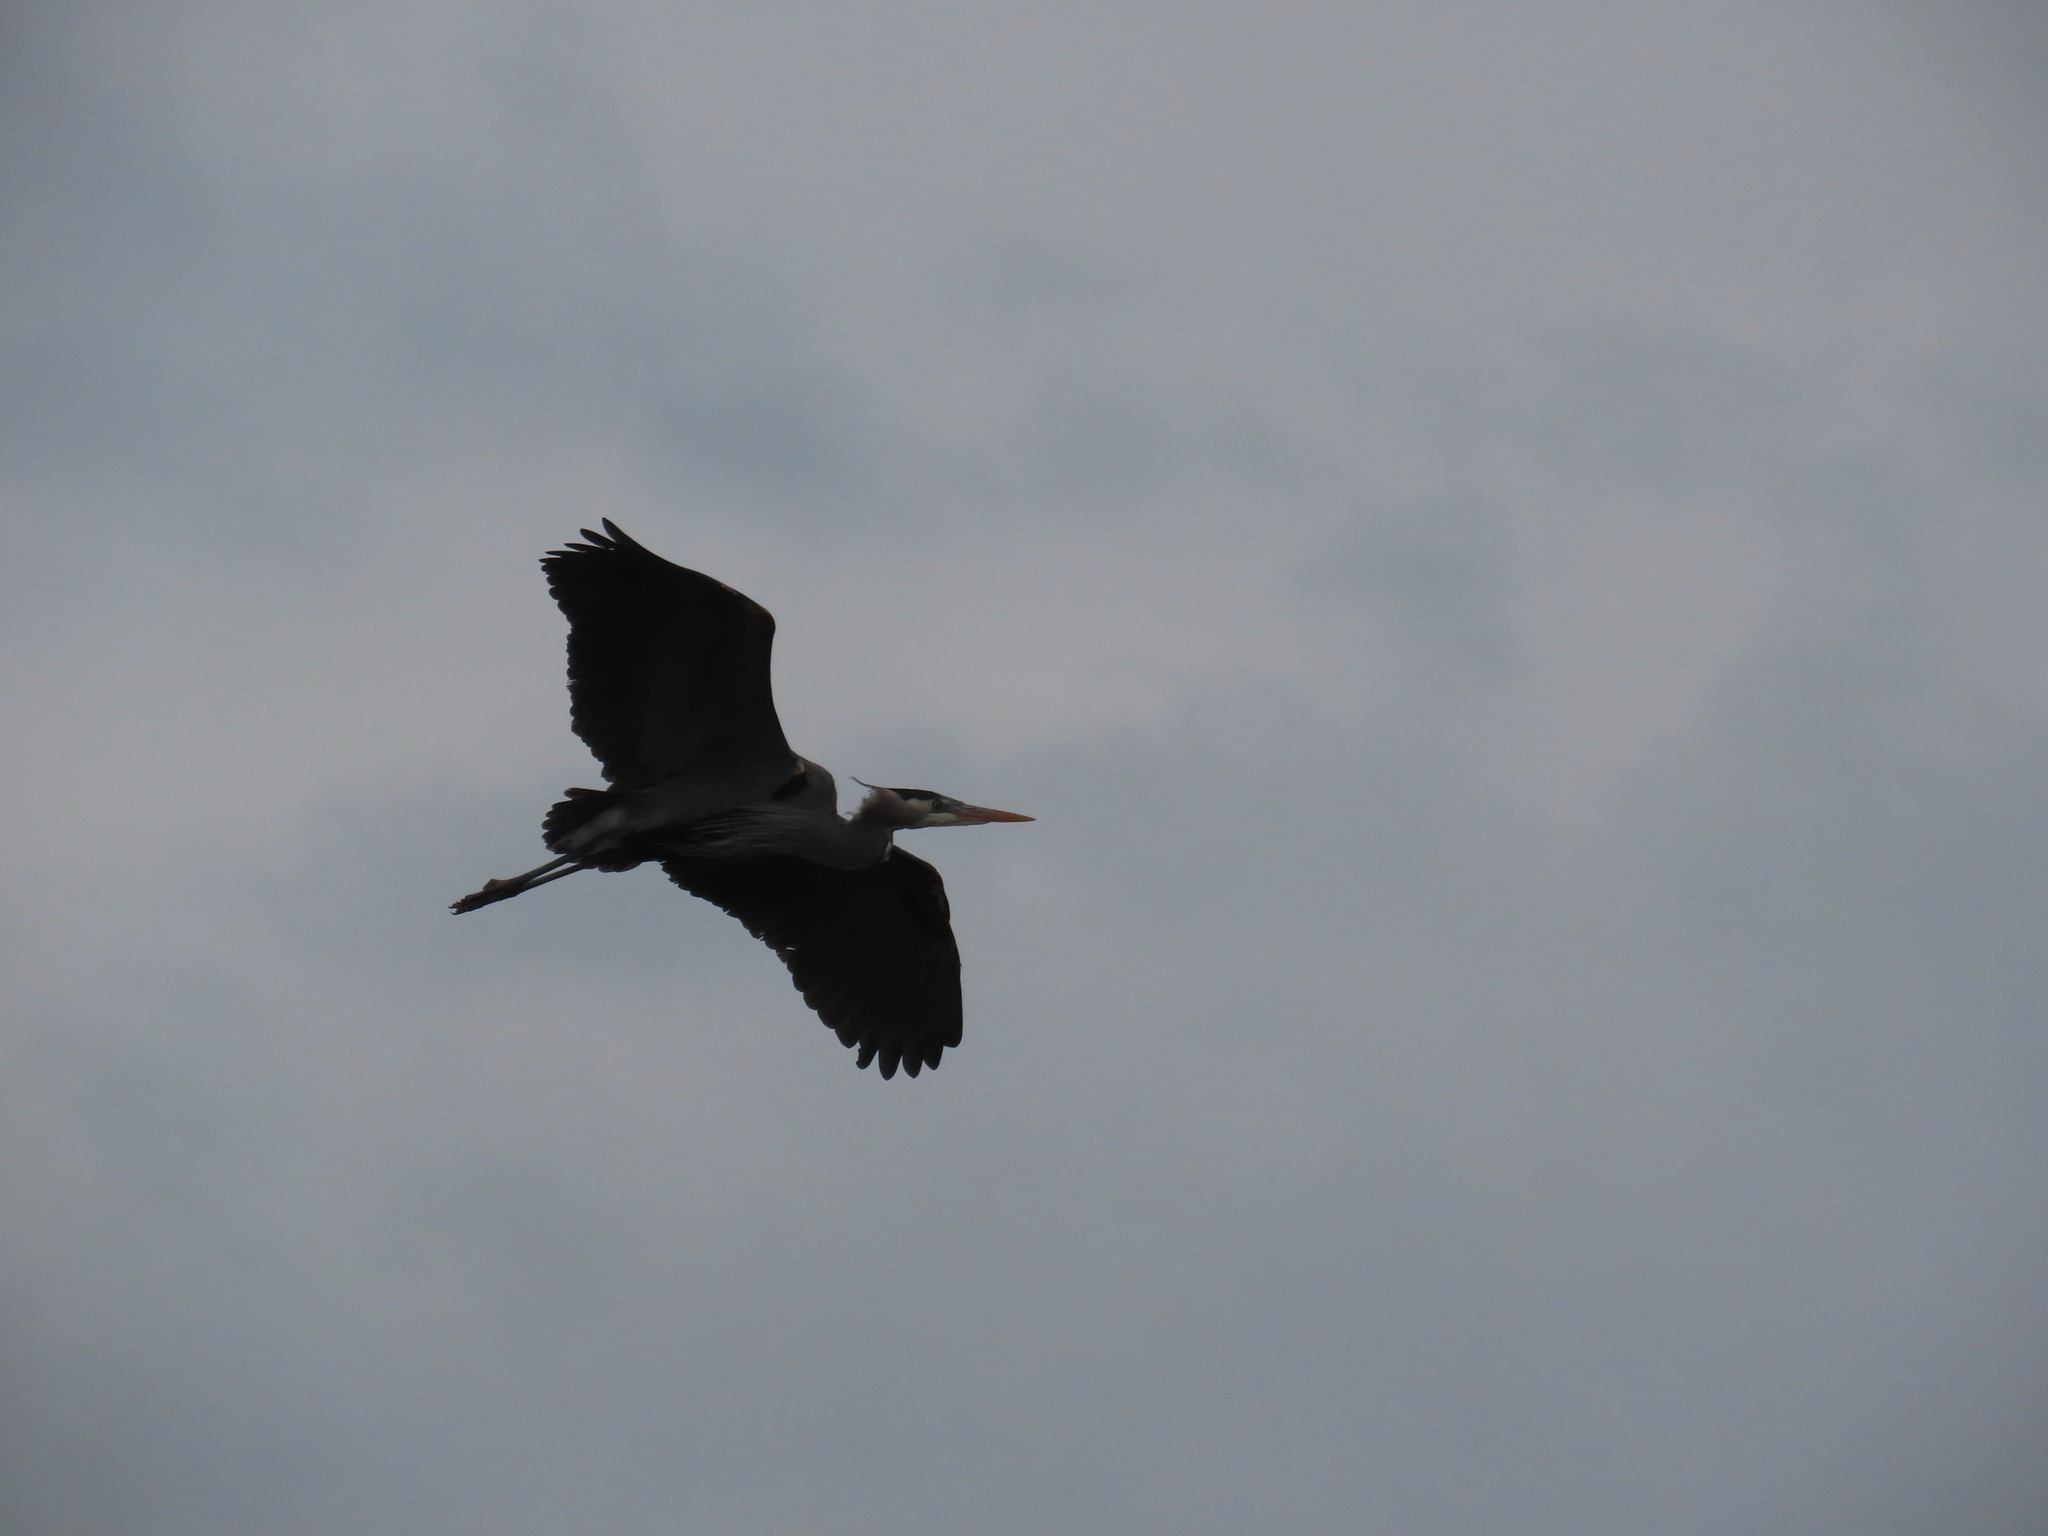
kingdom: Animalia
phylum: Chordata
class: Aves
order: Pelecaniformes
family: Ardeidae
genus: Ardea
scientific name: Ardea herodias
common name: Great blue heron
